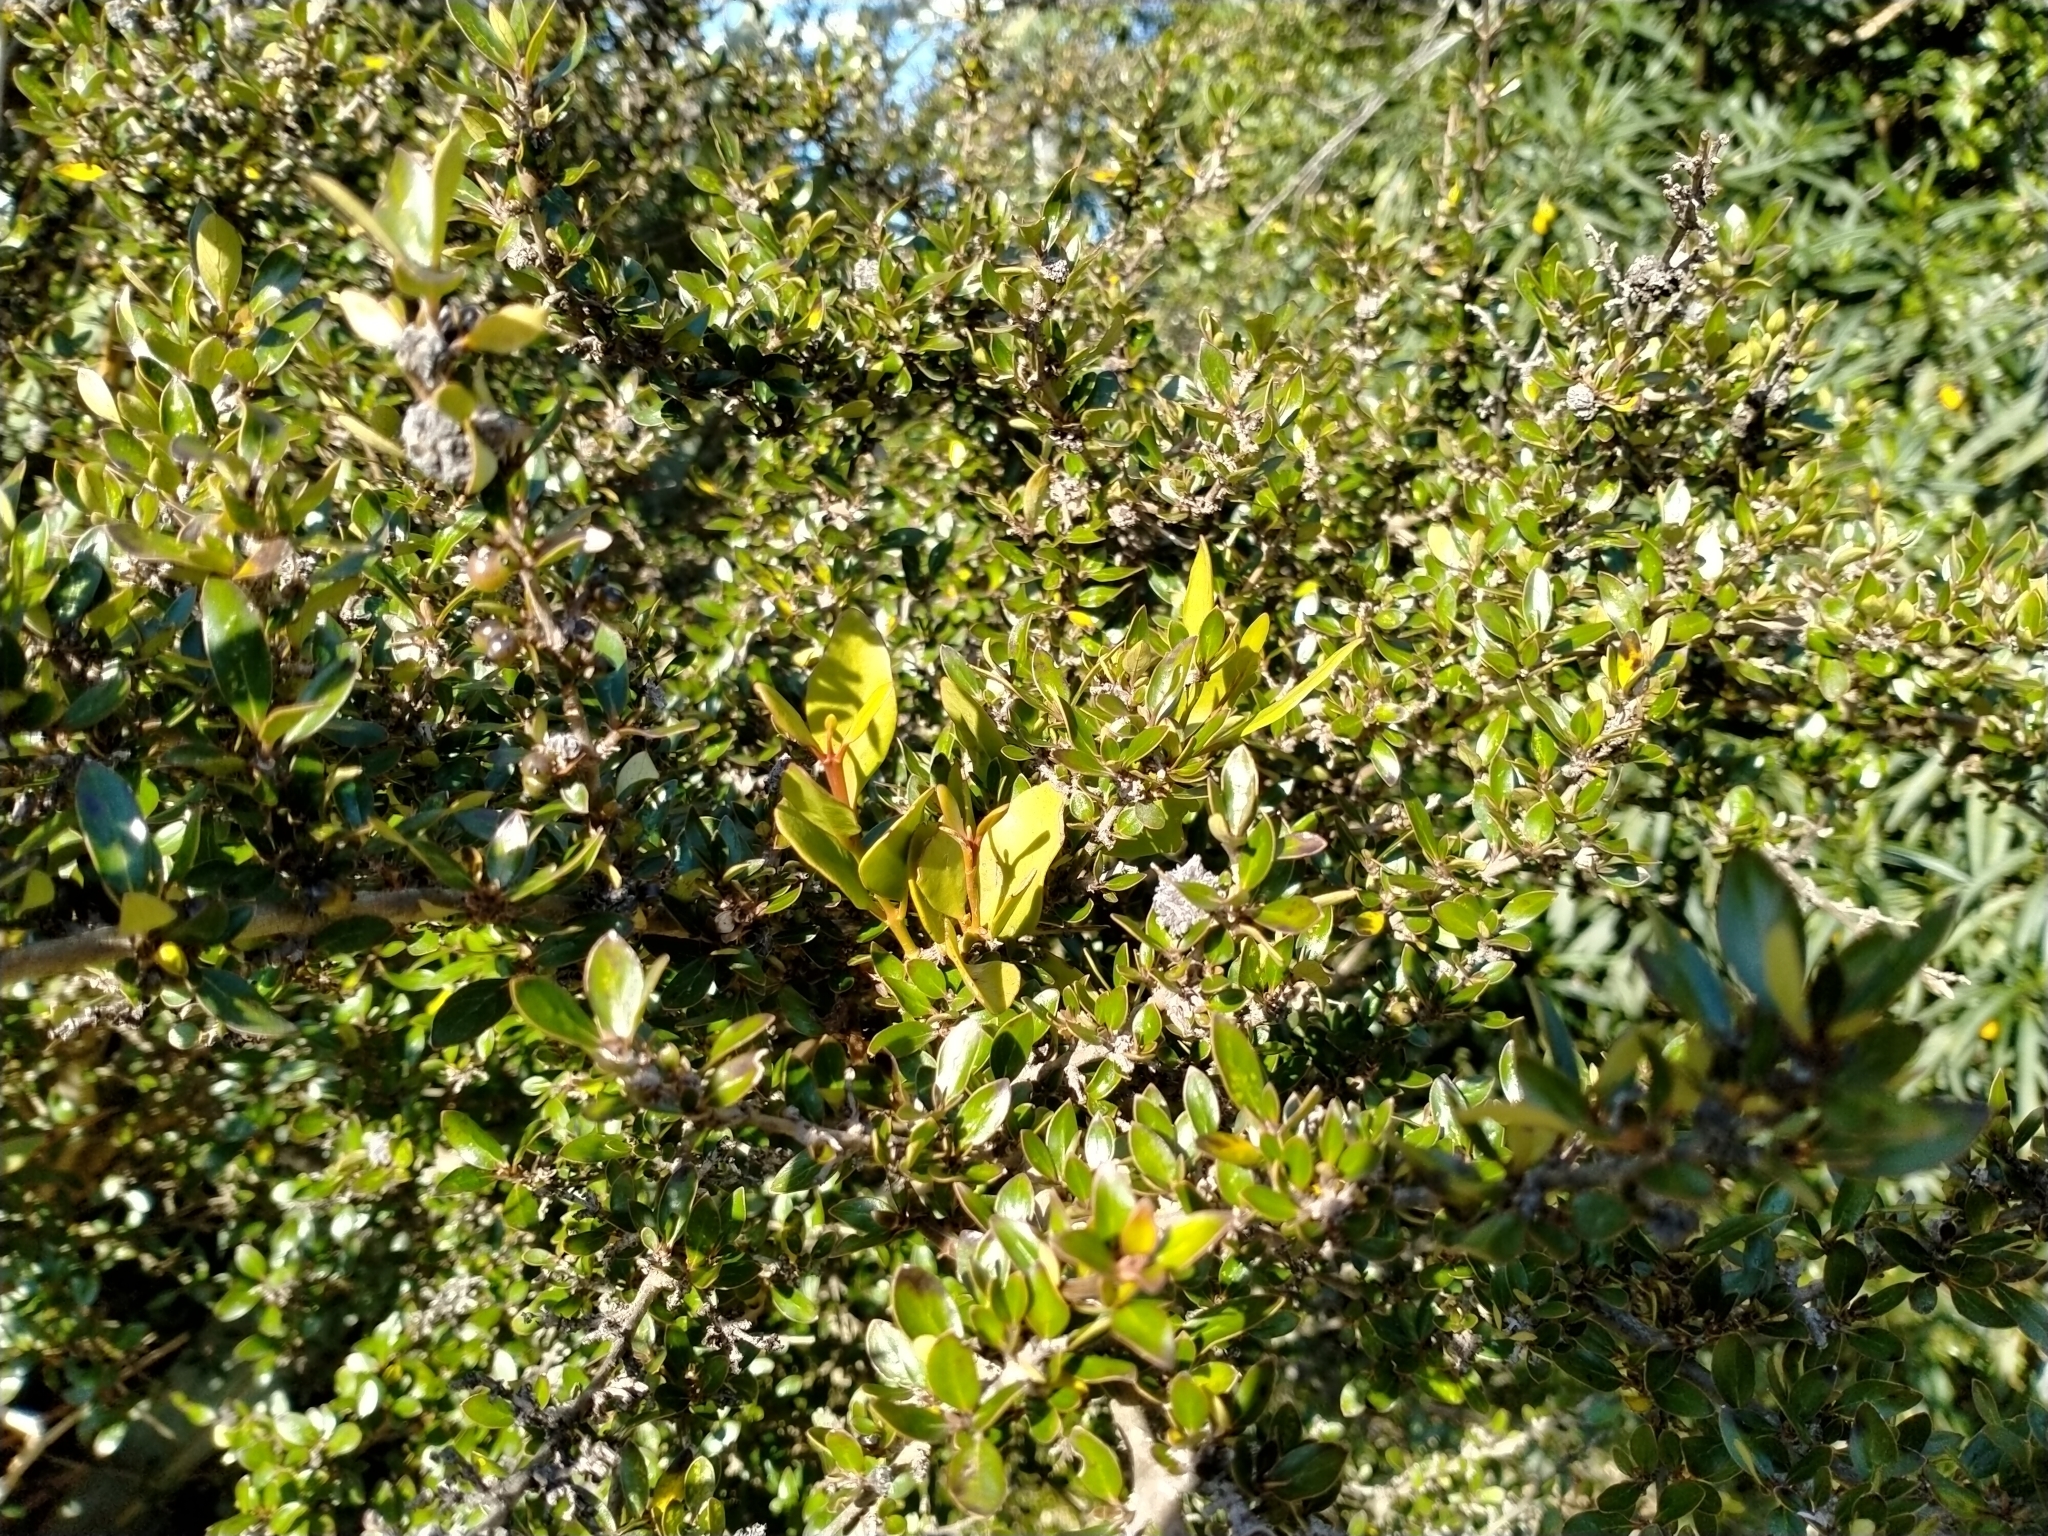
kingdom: Plantae
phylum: Tracheophyta
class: Magnoliopsida
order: Santalales
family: Loranthaceae
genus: Ileostylus
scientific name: Ileostylus micranthus
